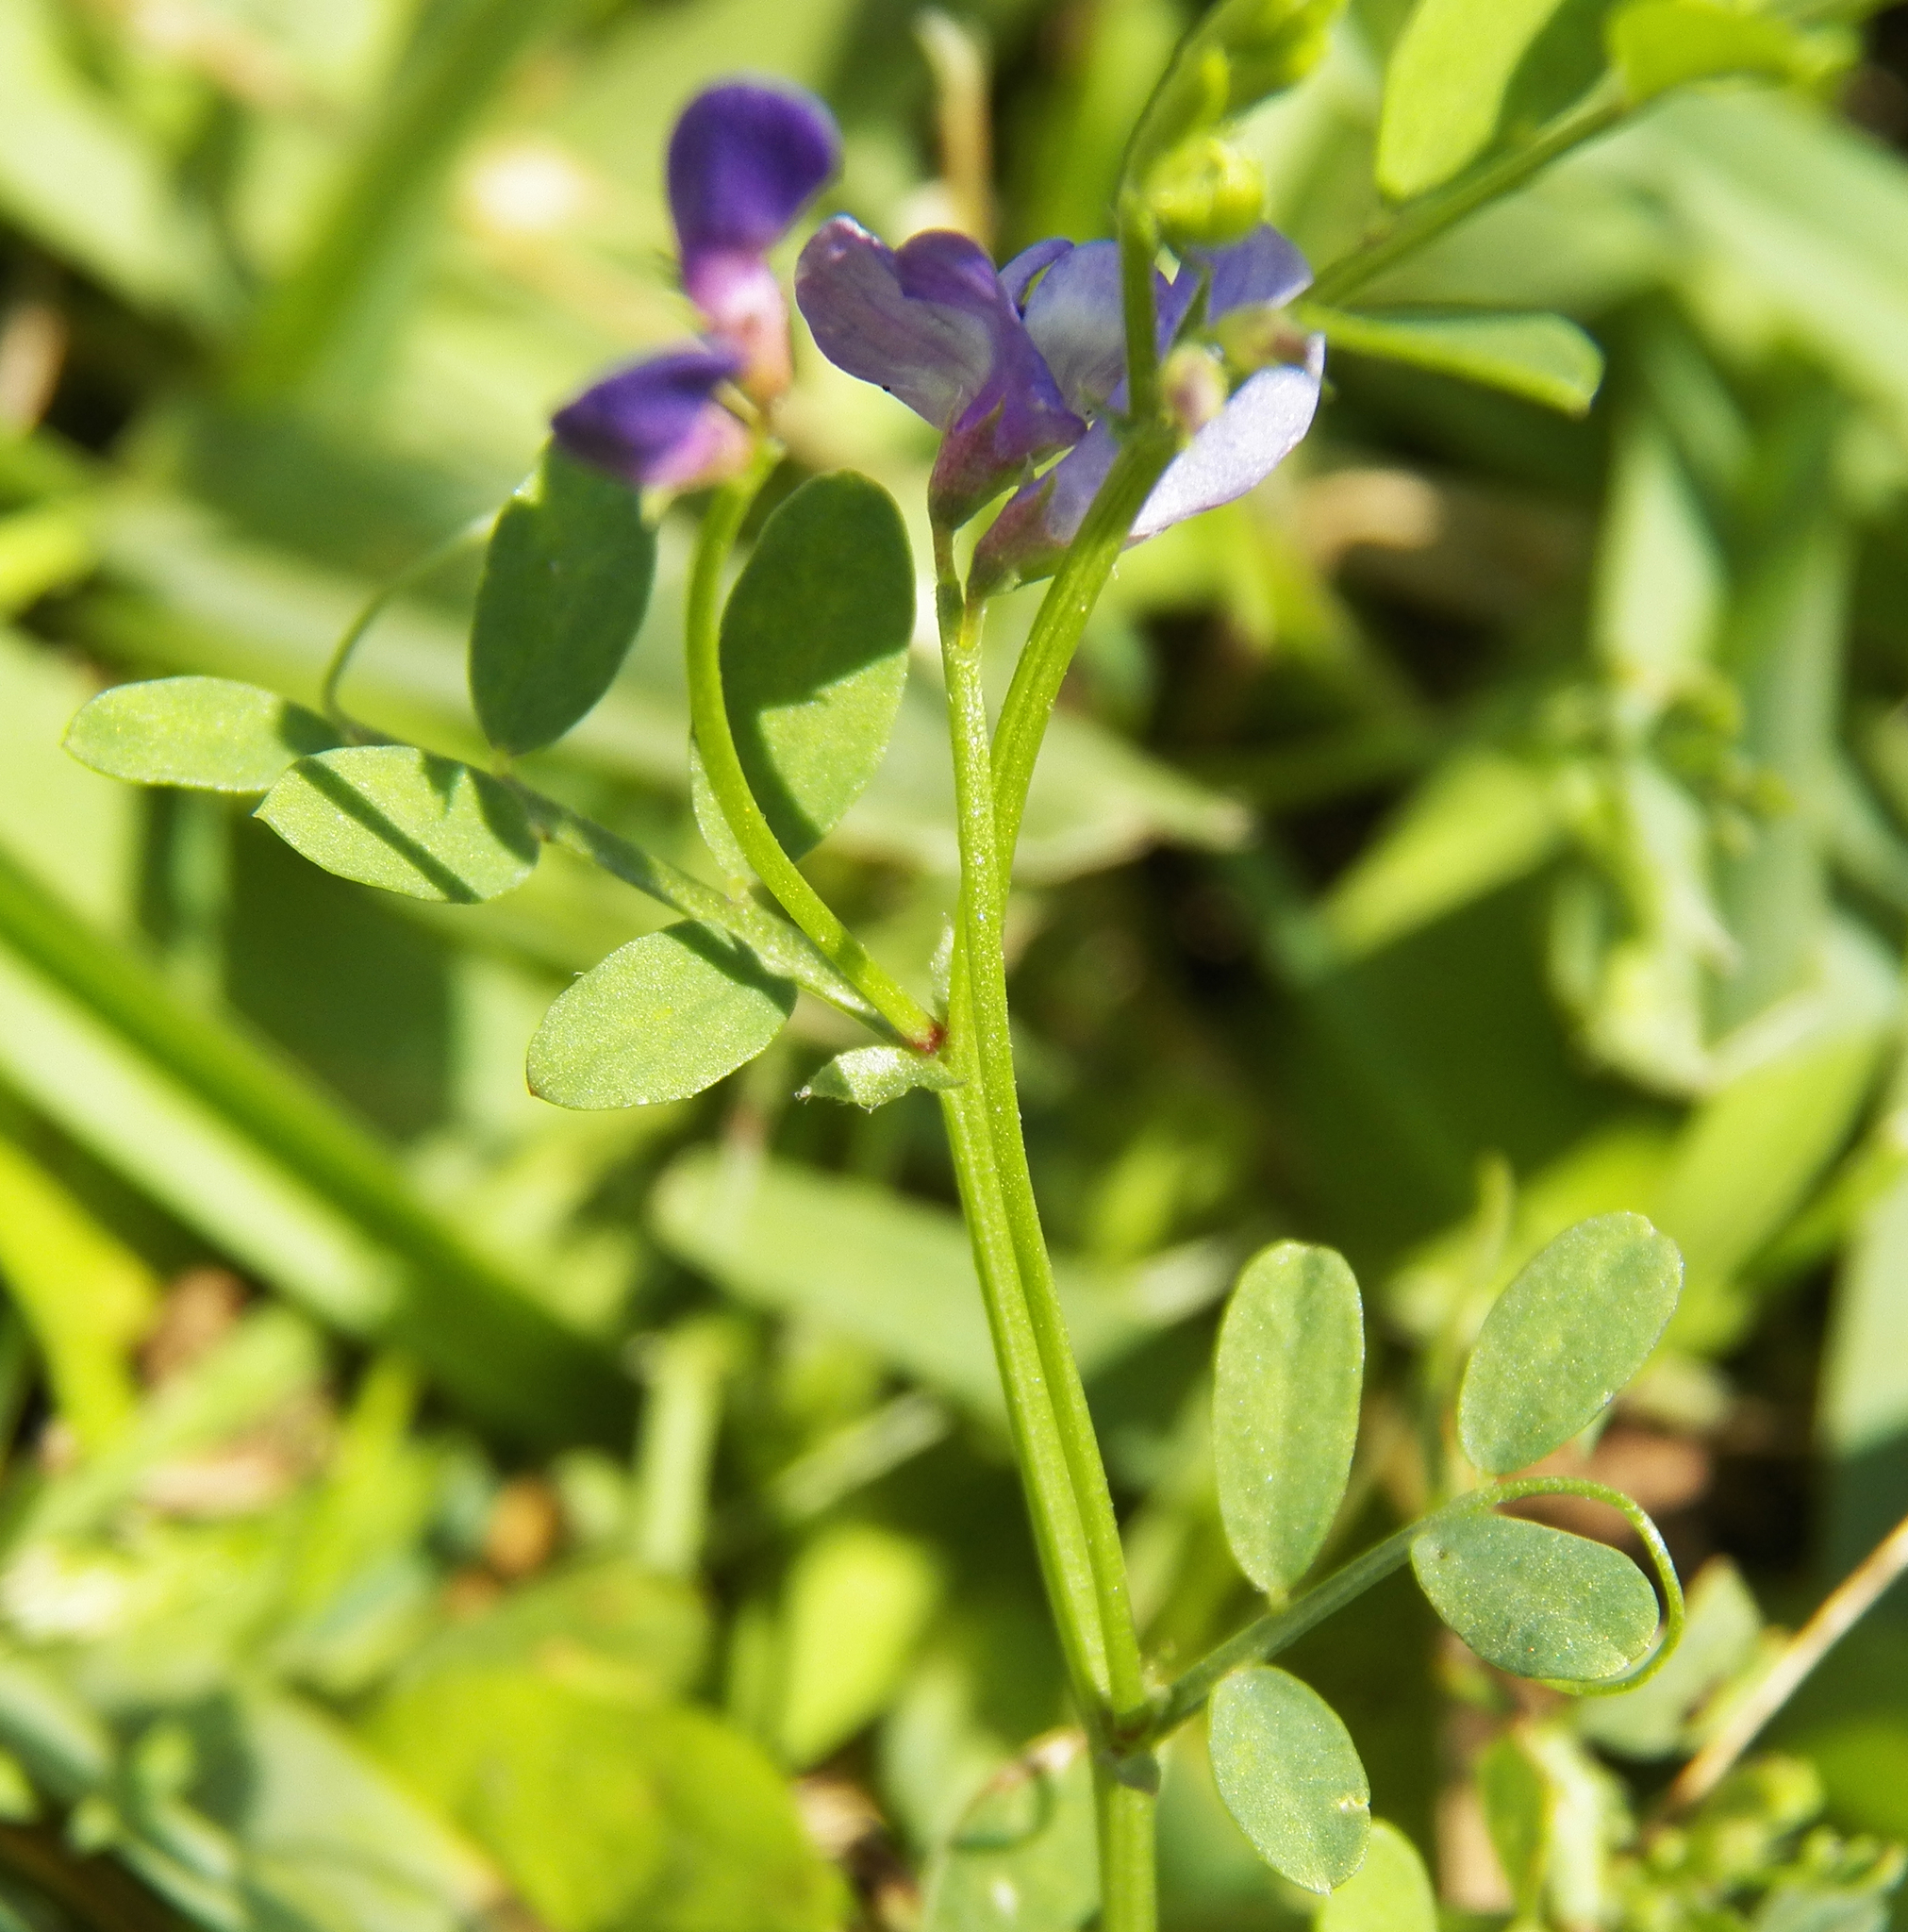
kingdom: Plantae
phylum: Tracheophyta
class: Magnoliopsida
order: Fabales
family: Fabaceae
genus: Vicia
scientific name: Vicia ludoviciana
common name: Louisiana vetch
